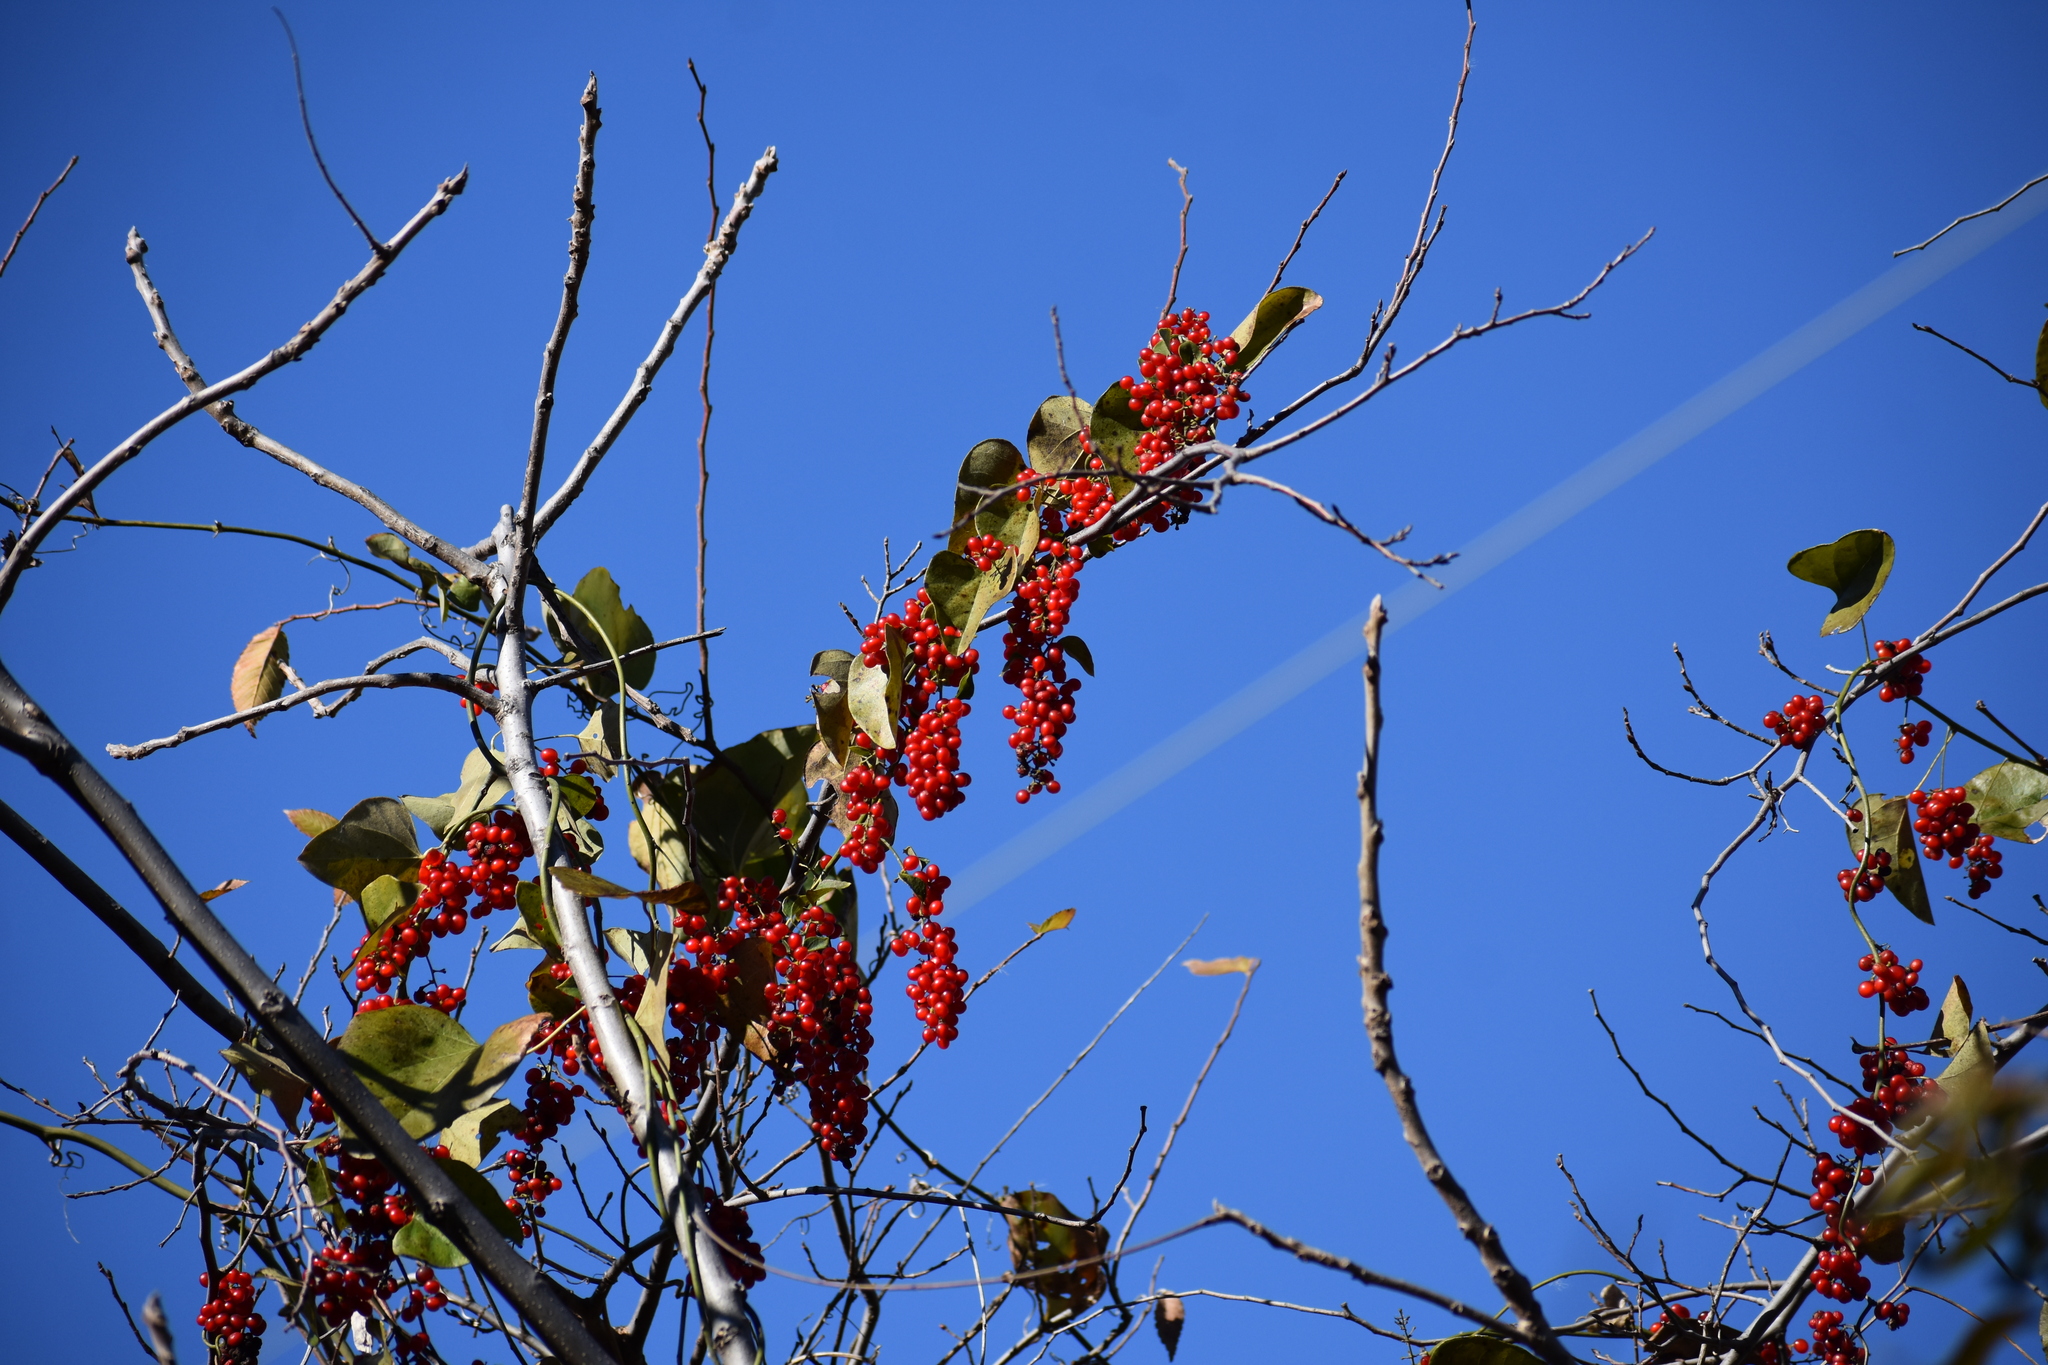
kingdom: Plantae
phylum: Tracheophyta
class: Magnoliopsida
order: Ranunculales
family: Menispermaceae
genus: Cocculus
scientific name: Cocculus carolinus
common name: Carolina moonseed
